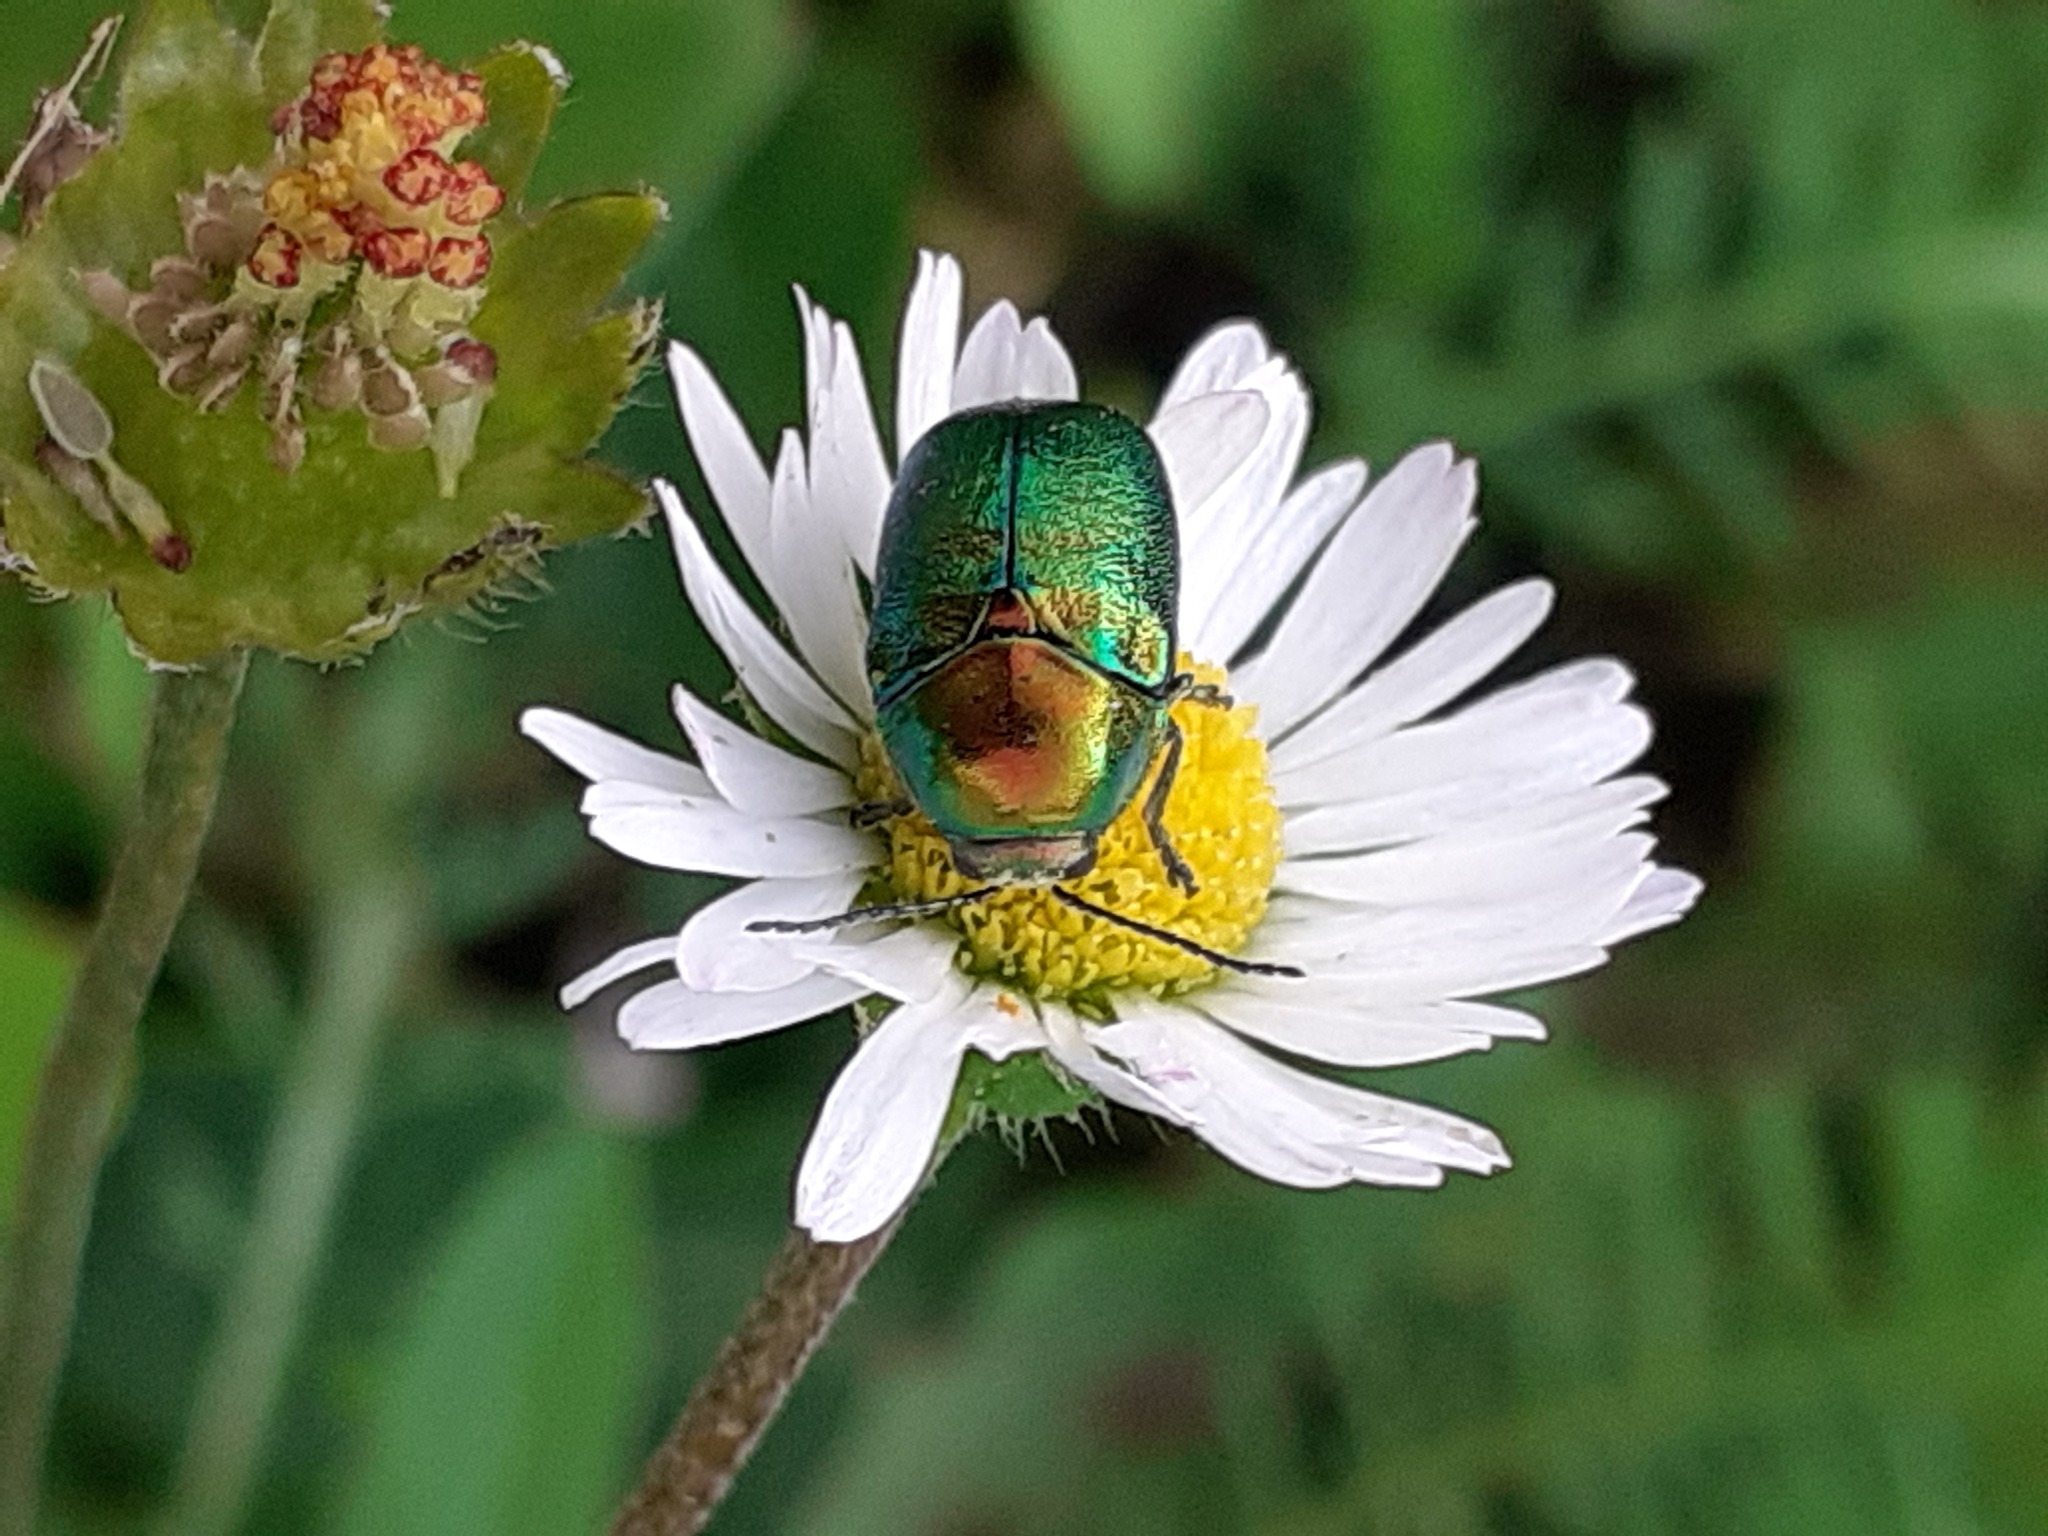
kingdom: Animalia
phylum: Arthropoda
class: Insecta
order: Coleoptera
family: Chrysomelidae
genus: Cryptocephalus
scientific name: Cryptocephalus
